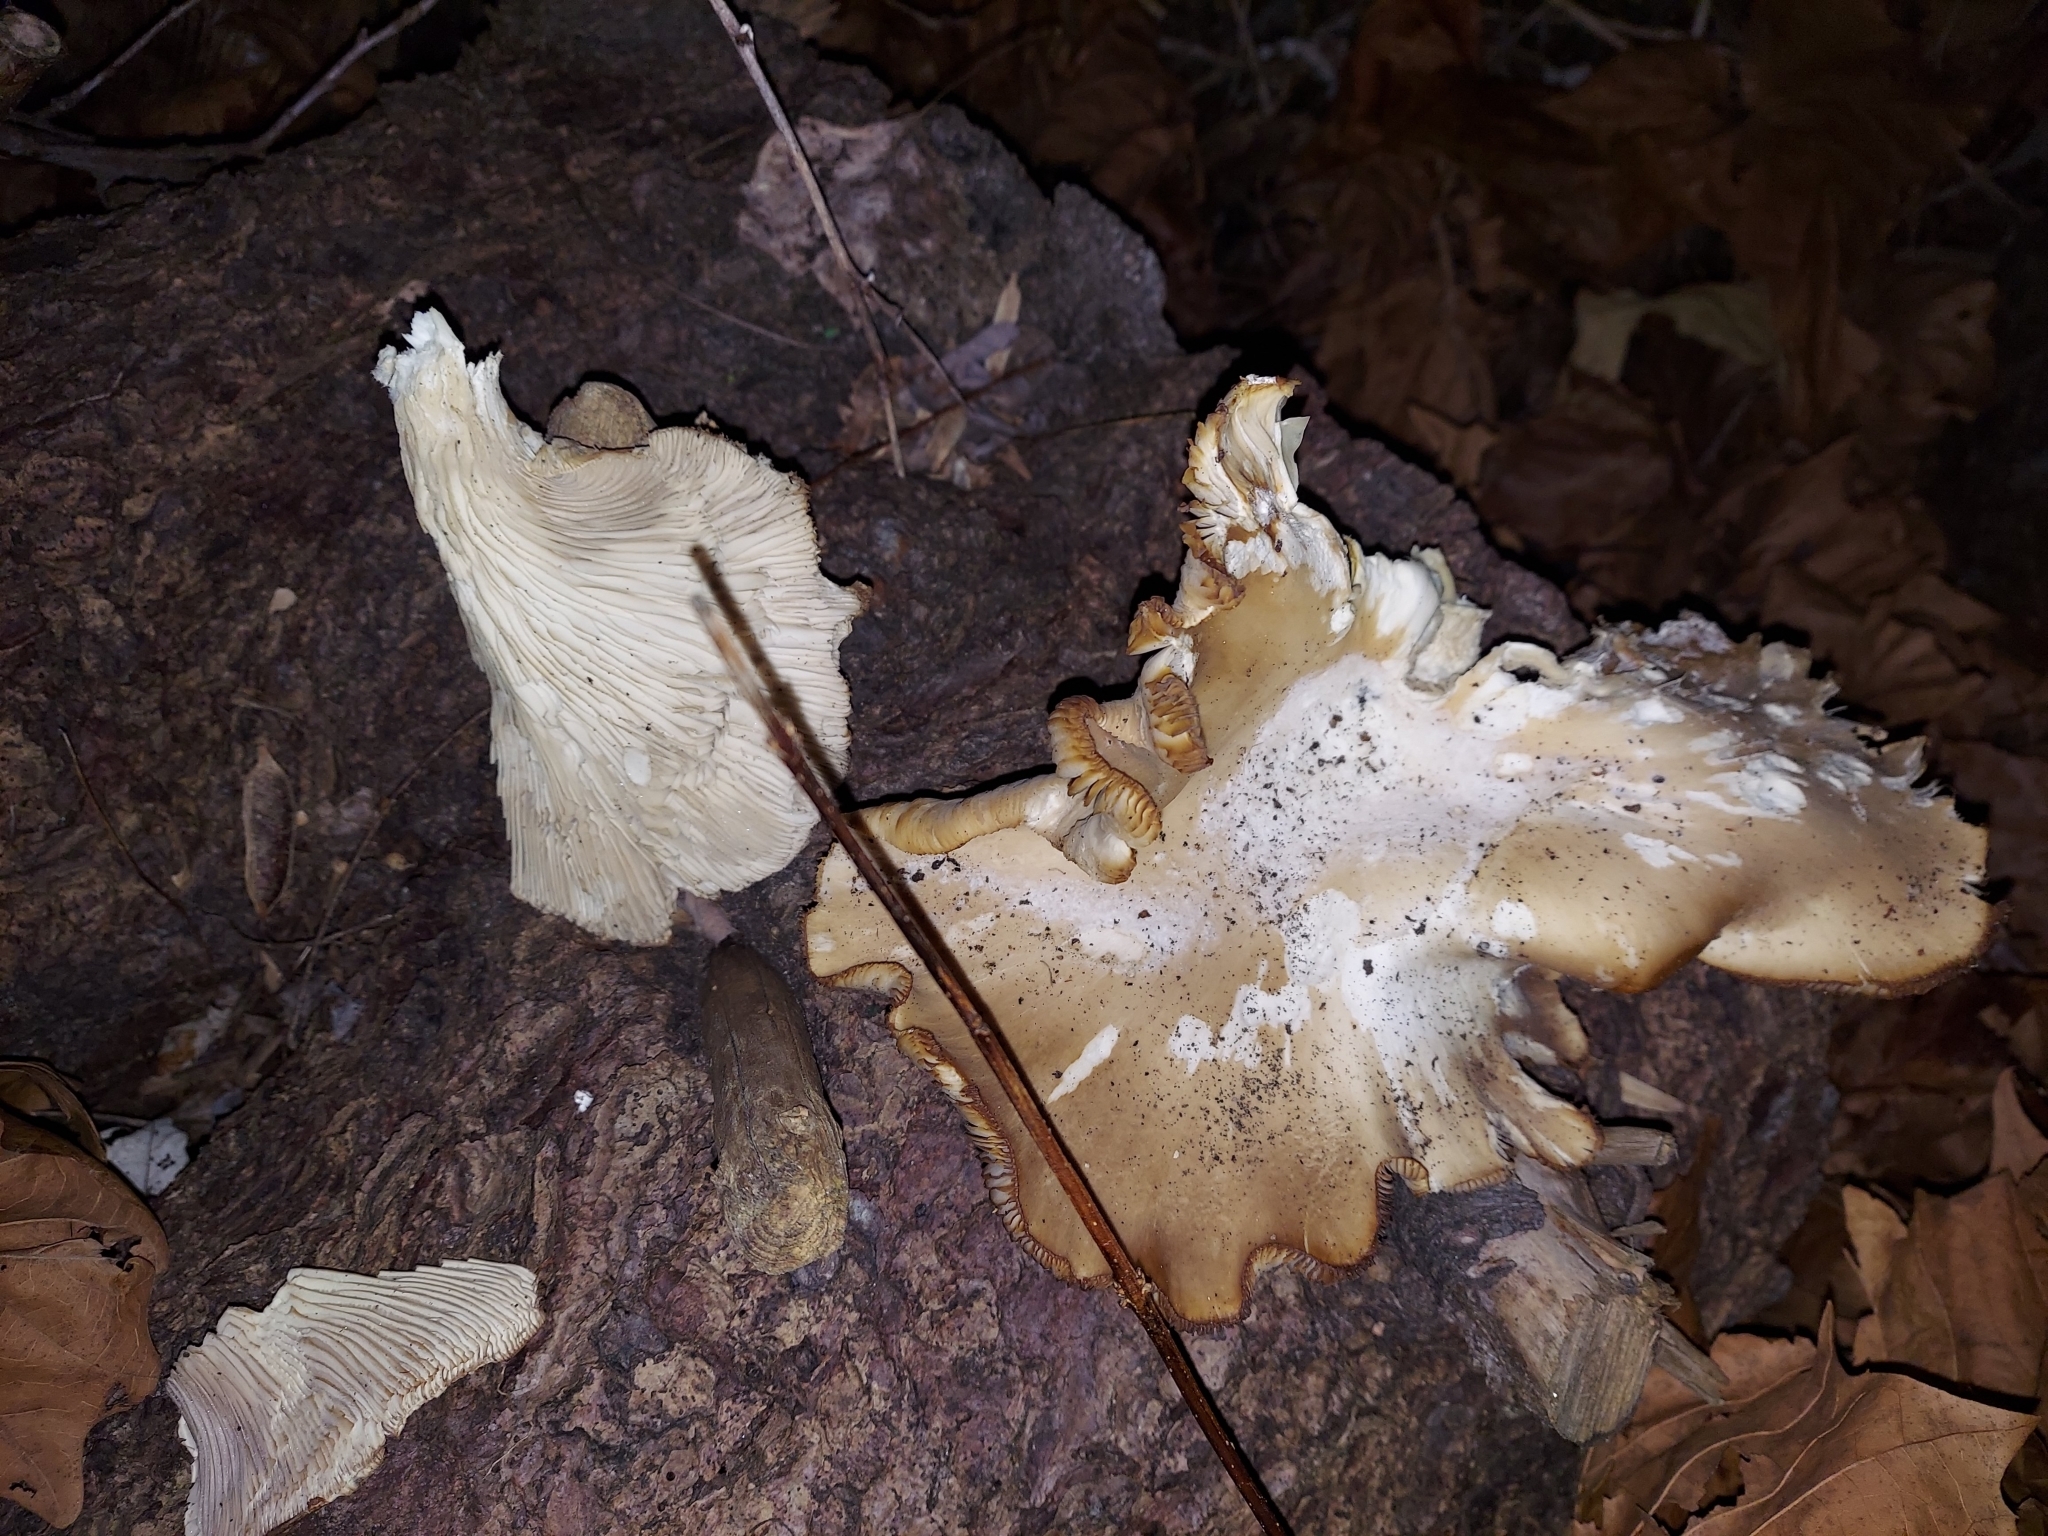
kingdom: Fungi
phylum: Basidiomycota
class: Agaricomycetes
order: Agaricales
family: Pleurotaceae
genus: Pleurotus
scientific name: Pleurotus ostreatus
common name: Oyster mushroom
